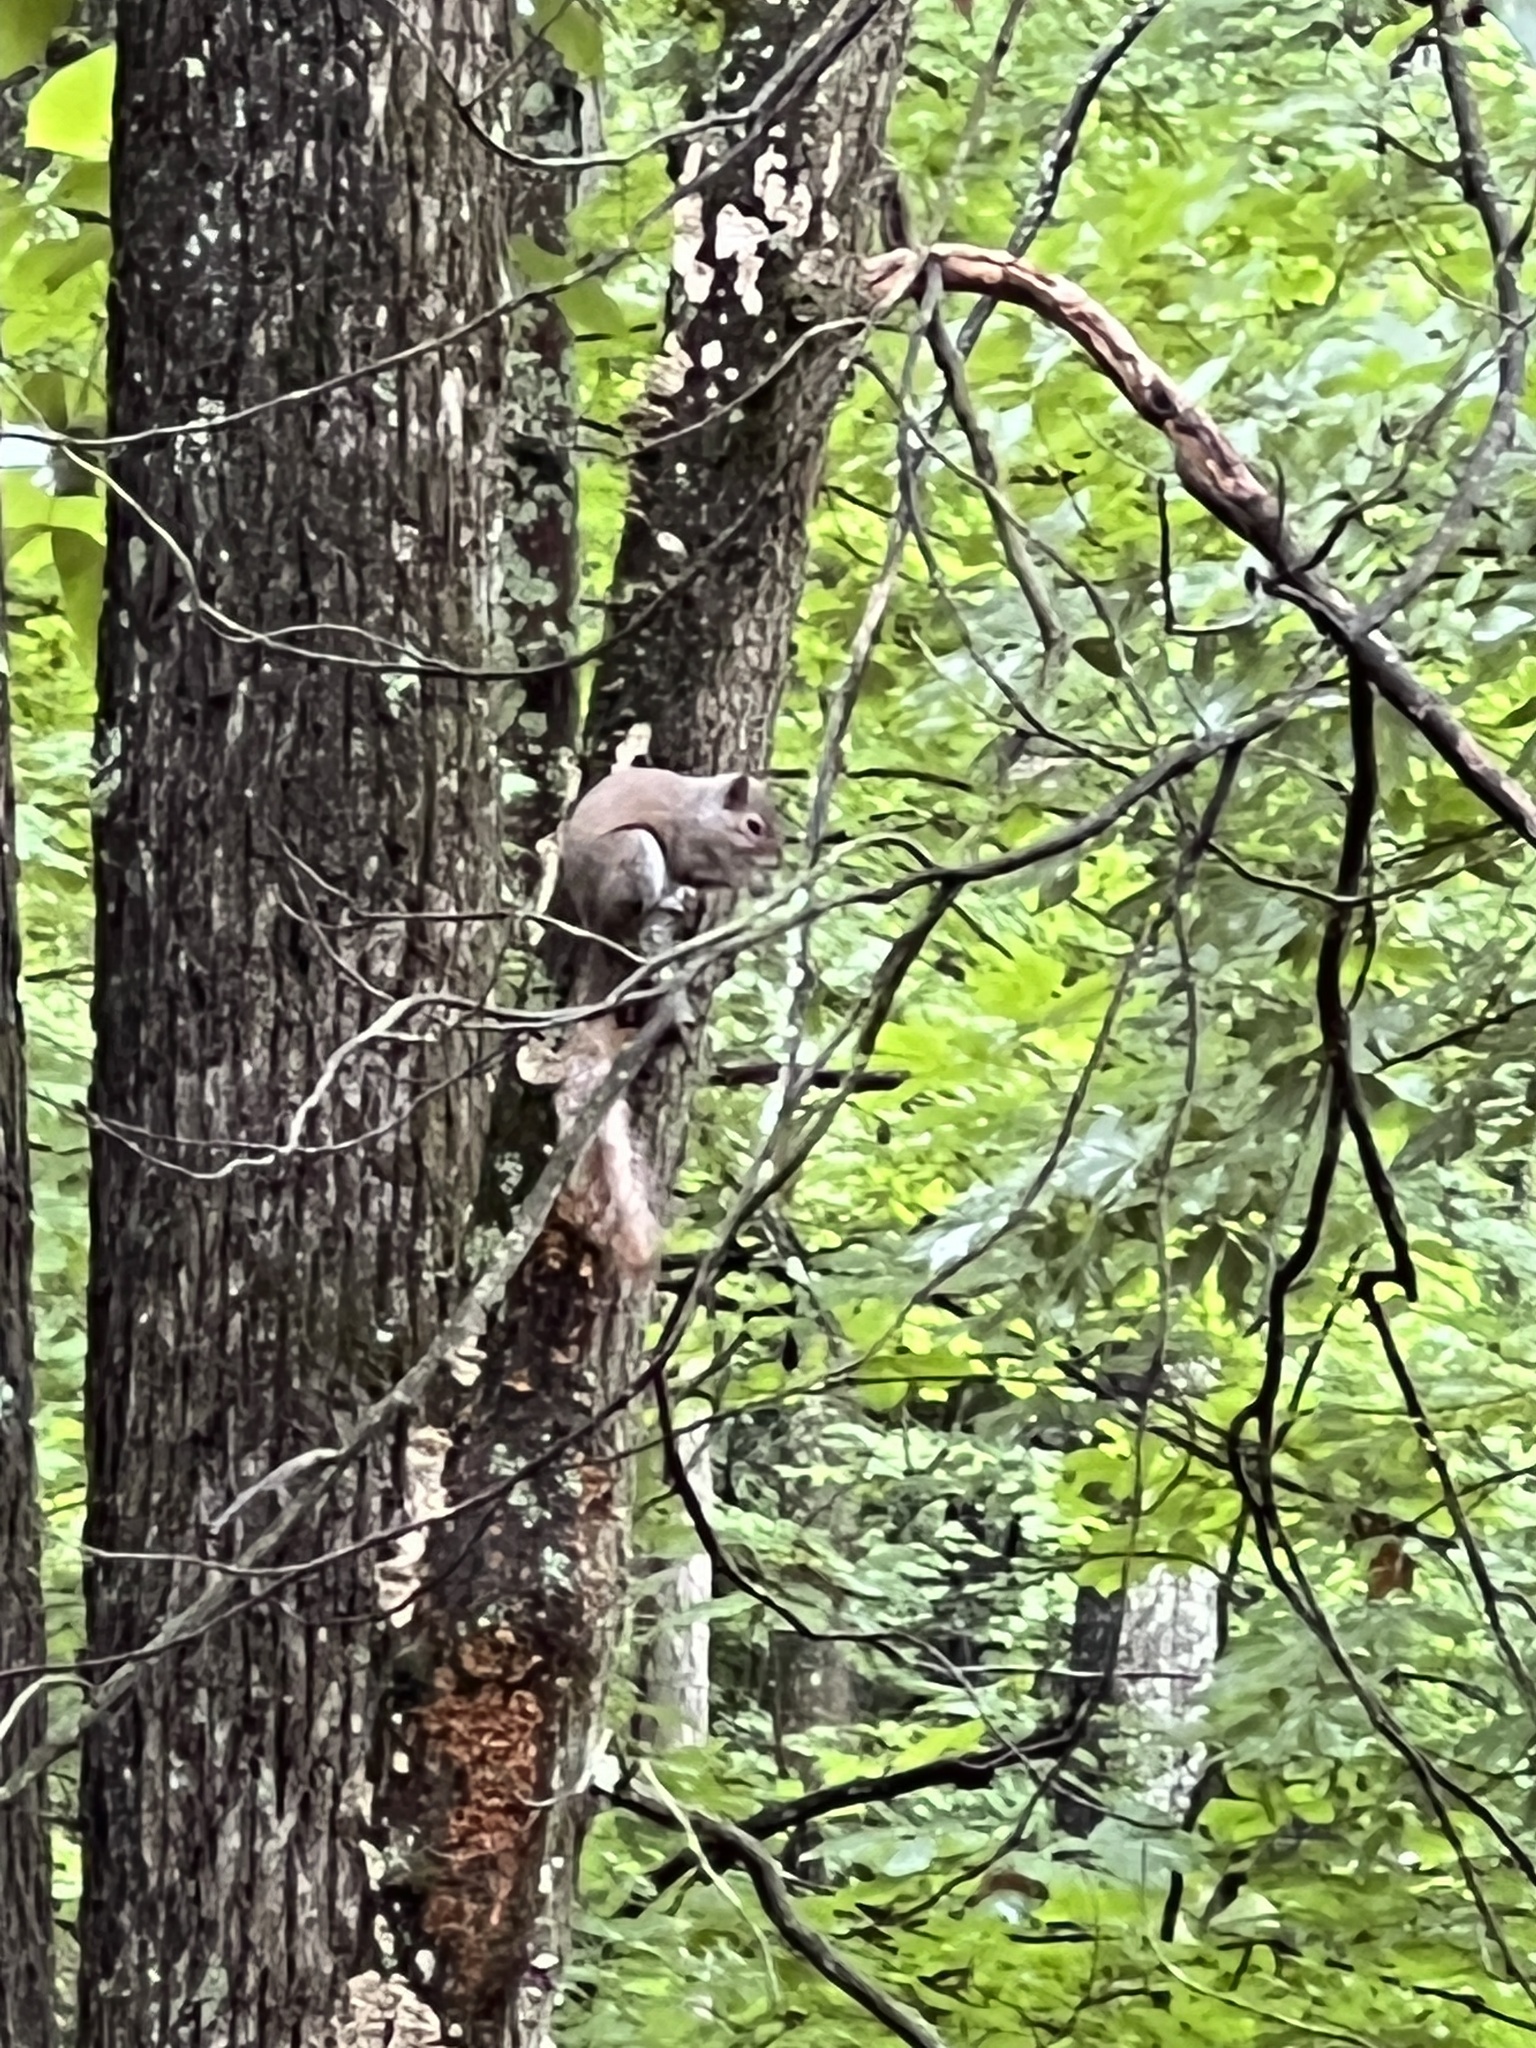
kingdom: Animalia
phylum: Chordata
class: Mammalia
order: Rodentia
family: Sciuridae
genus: Sciurus
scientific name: Sciurus carolinensis
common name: Eastern gray squirrel
